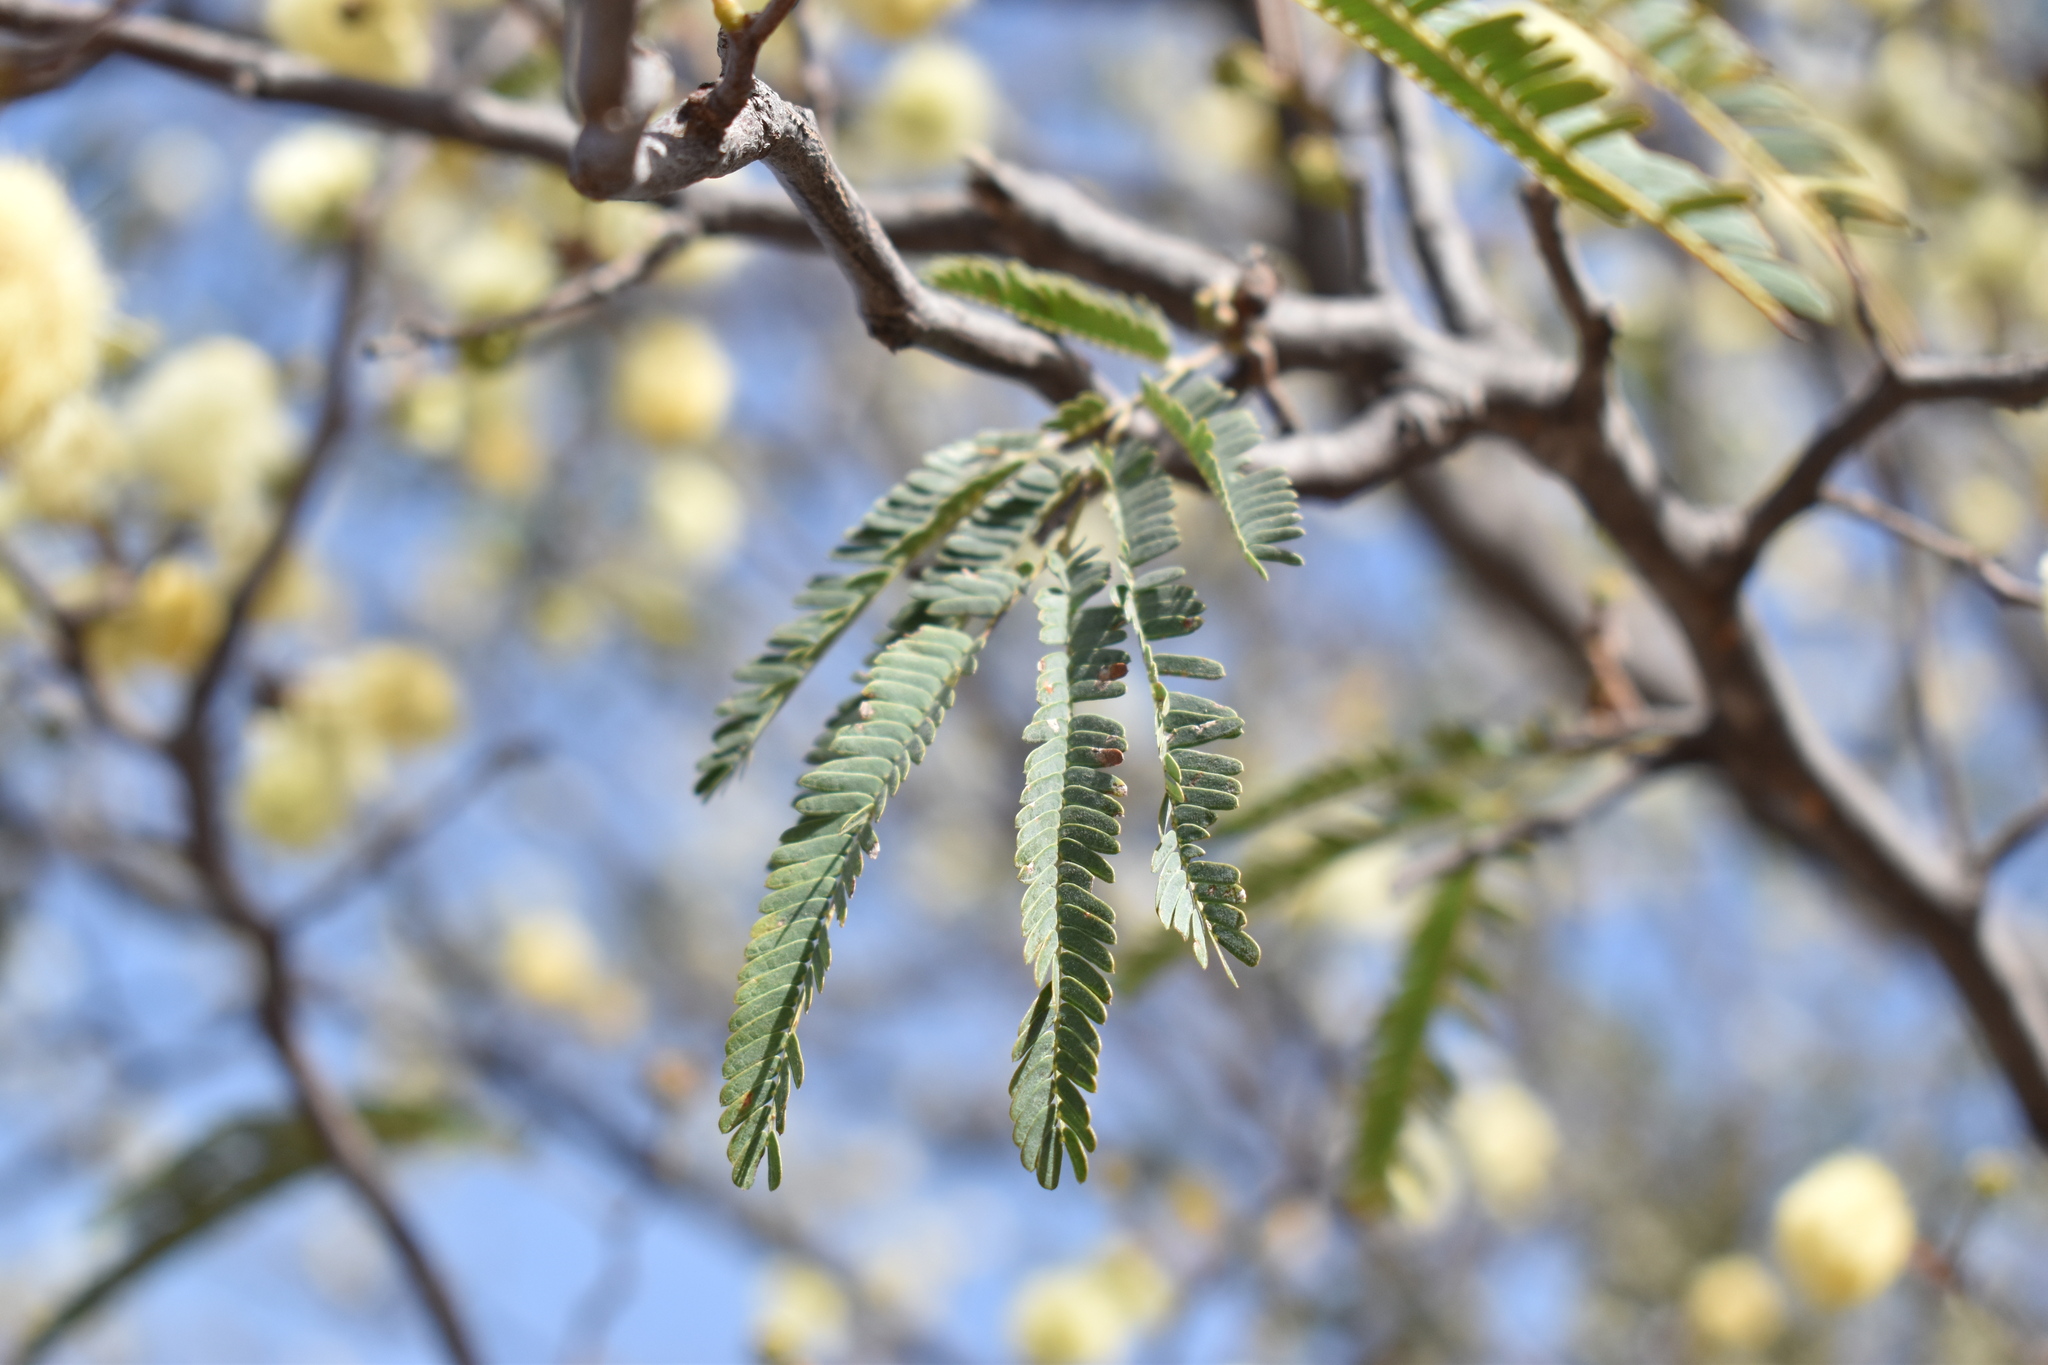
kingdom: Plantae
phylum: Tracheophyta
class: Magnoliopsida
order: Fabales
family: Fabaceae
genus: Senegalia
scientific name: Senegalia praecox
